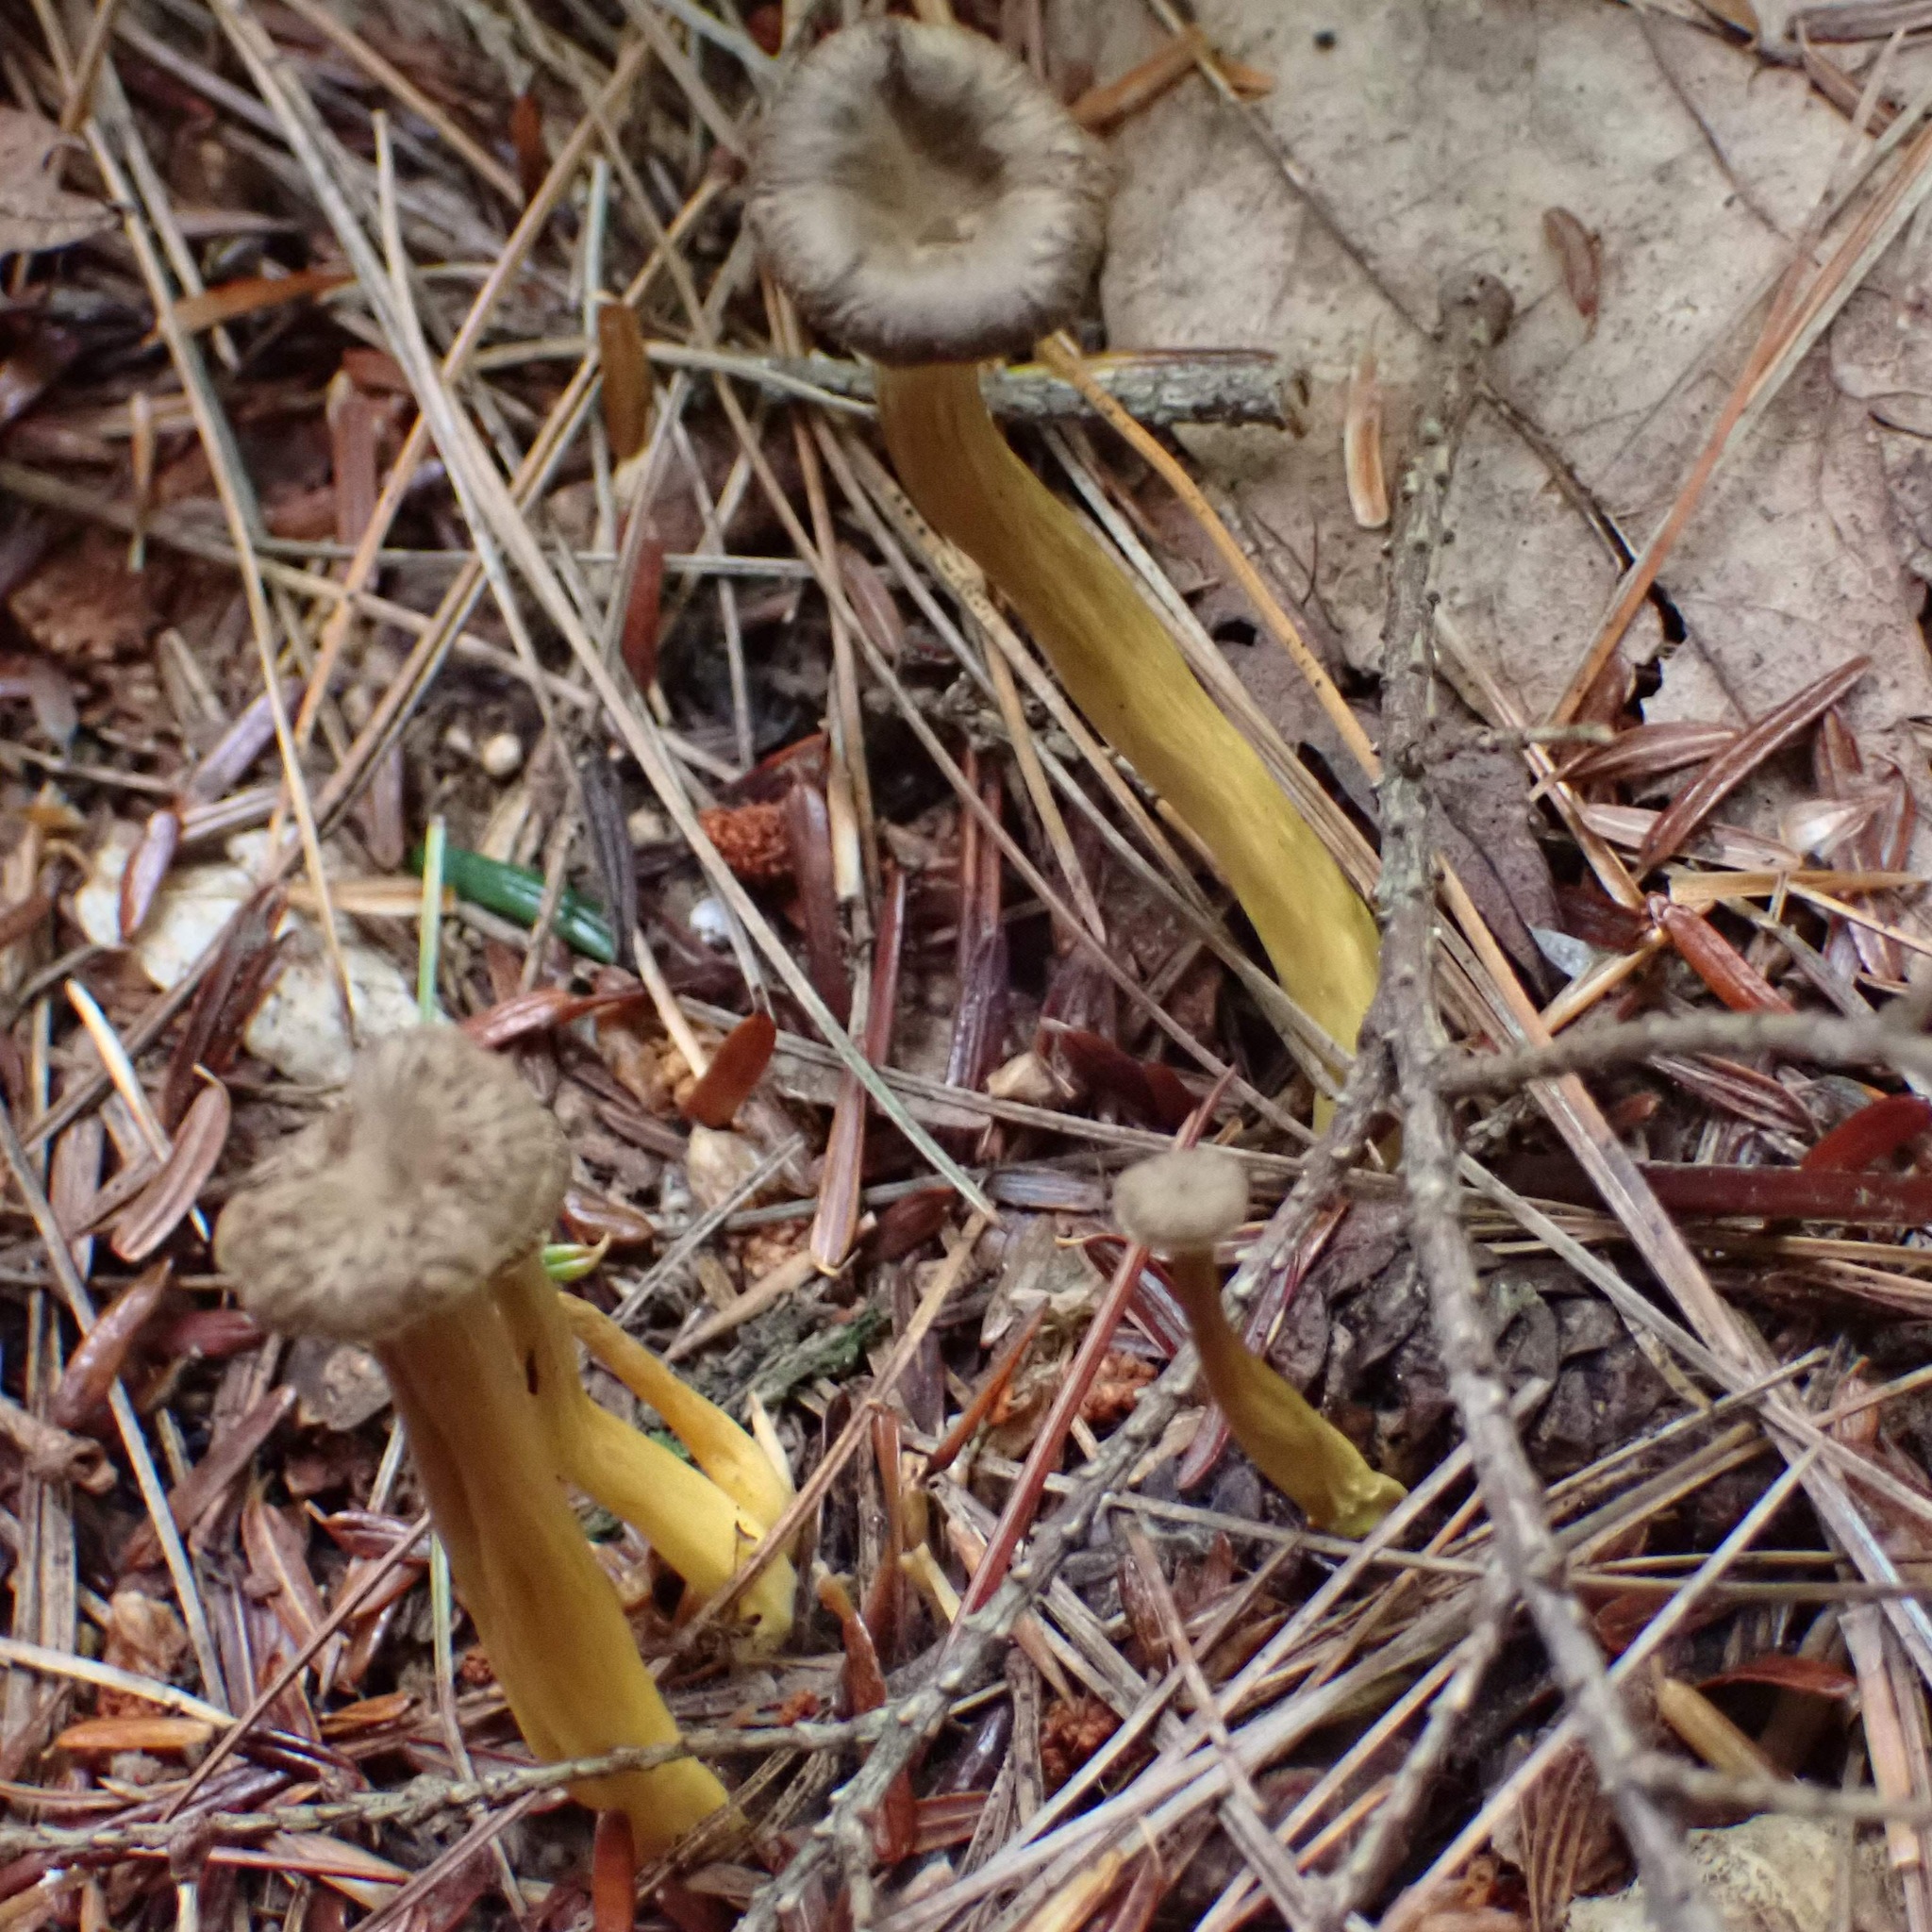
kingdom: Fungi
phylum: Basidiomycota
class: Agaricomycetes
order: Cantharellales
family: Hydnaceae
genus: Craterellus
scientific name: Craterellus tubaeformis
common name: Yellowfoot
